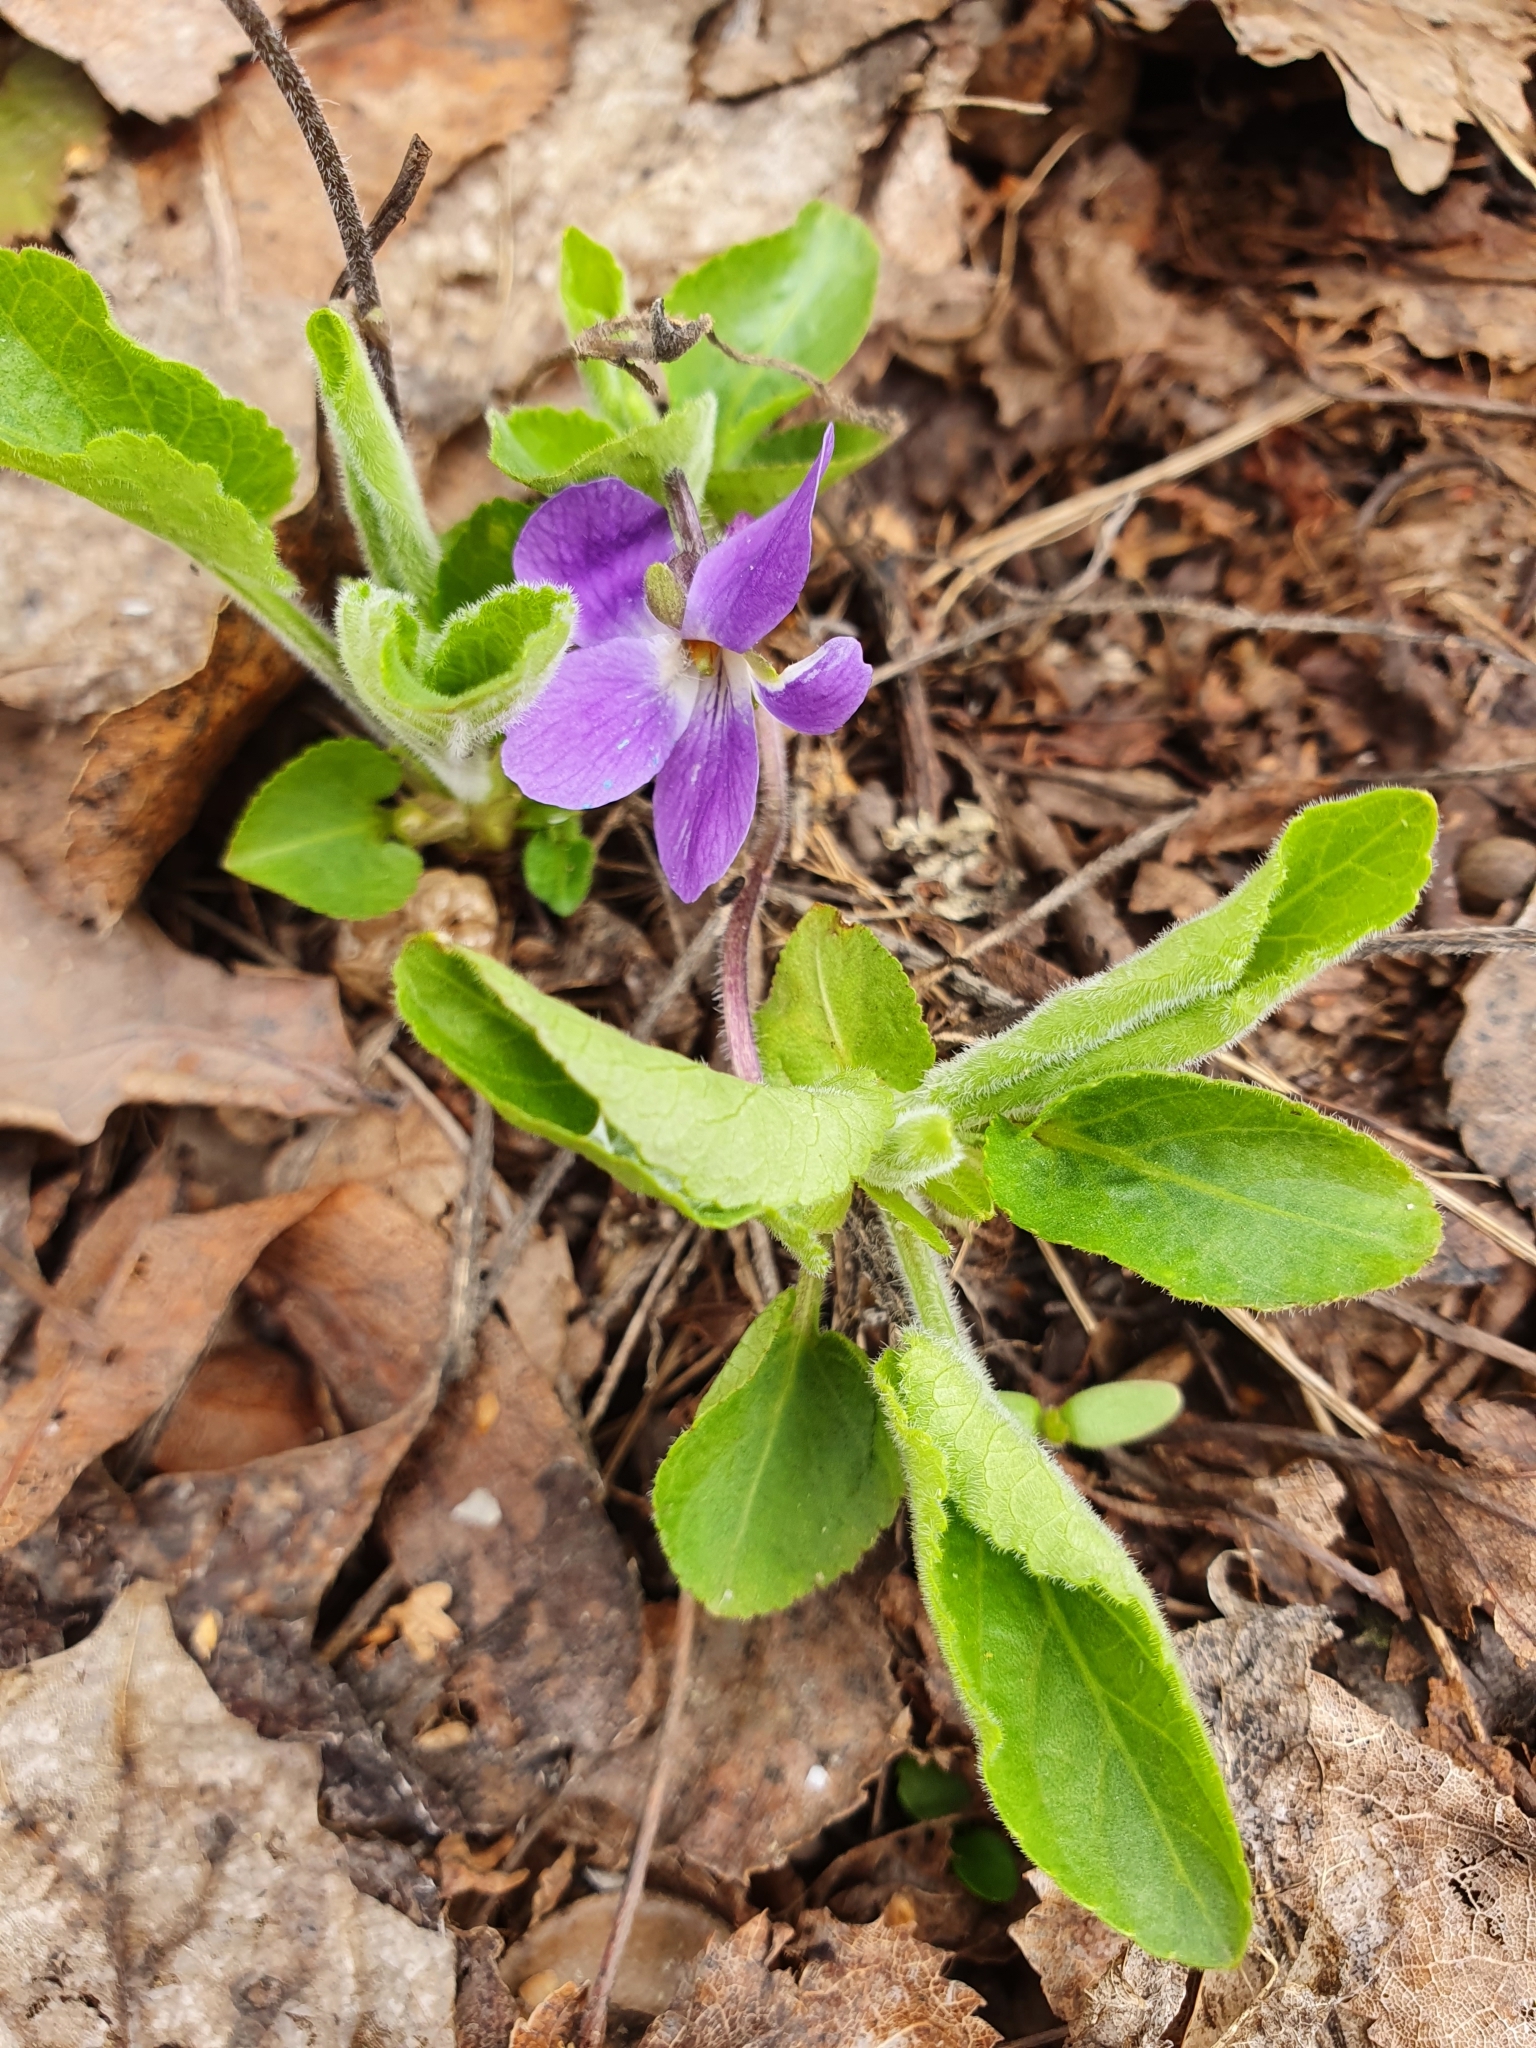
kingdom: Plantae
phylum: Tracheophyta
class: Magnoliopsida
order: Malpighiales
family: Violaceae
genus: Viola
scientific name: Viola hirta
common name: Hairy violet
